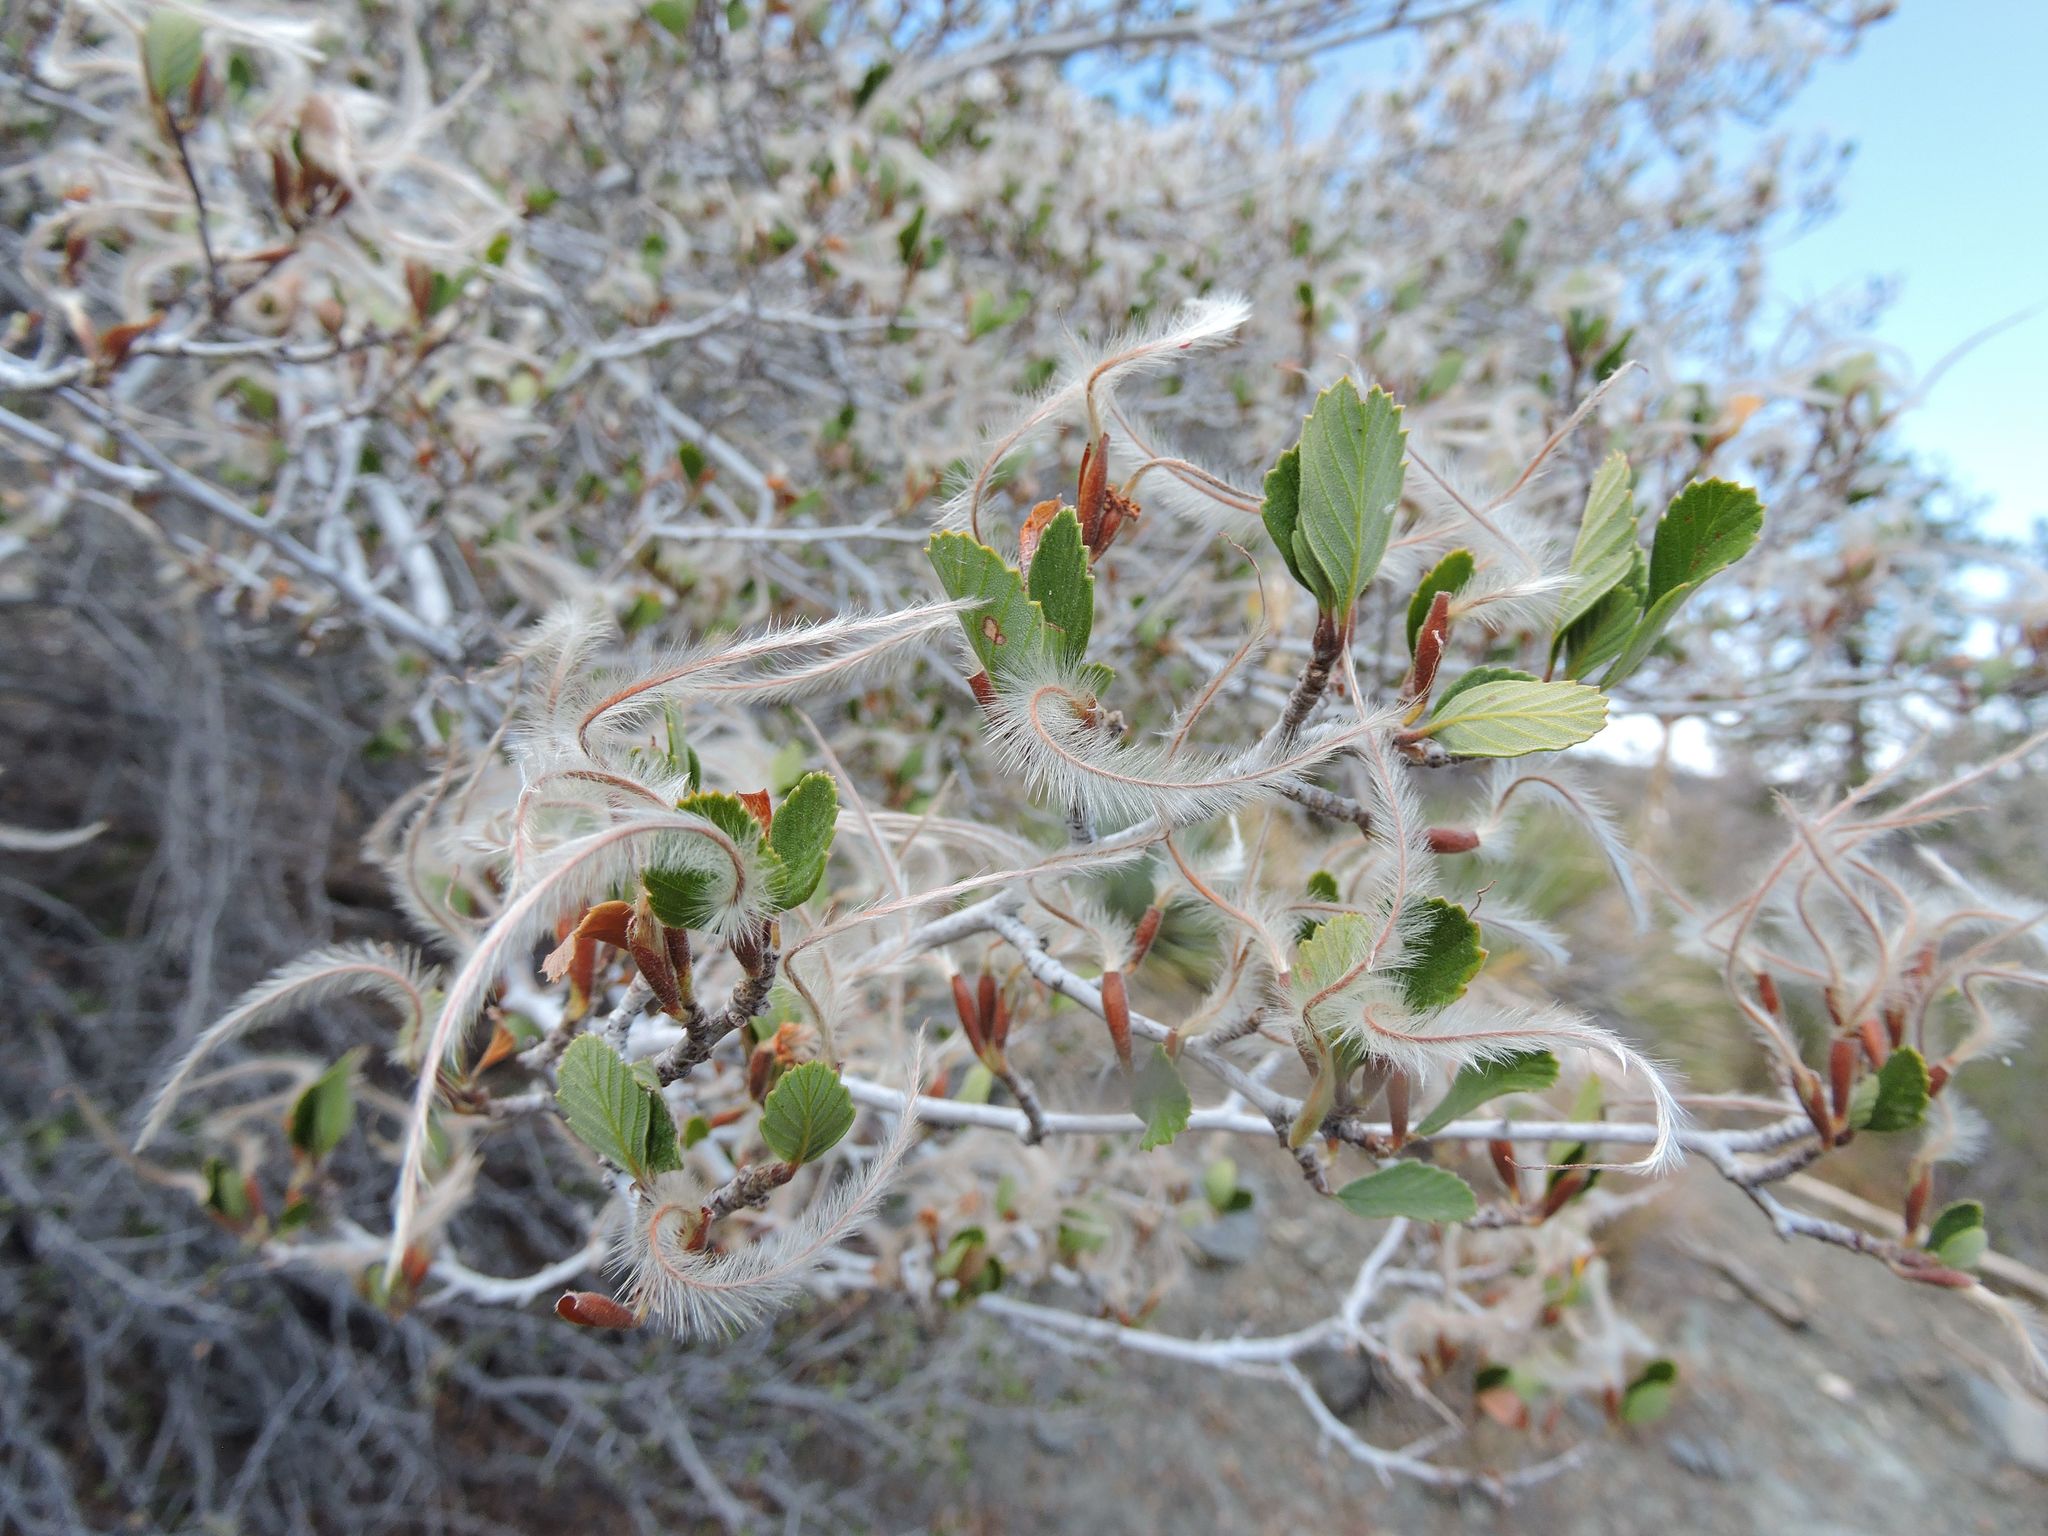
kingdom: Plantae
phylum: Tracheophyta
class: Magnoliopsida
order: Rosales
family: Rosaceae
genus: Cercocarpus
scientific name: Cercocarpus betuloides
